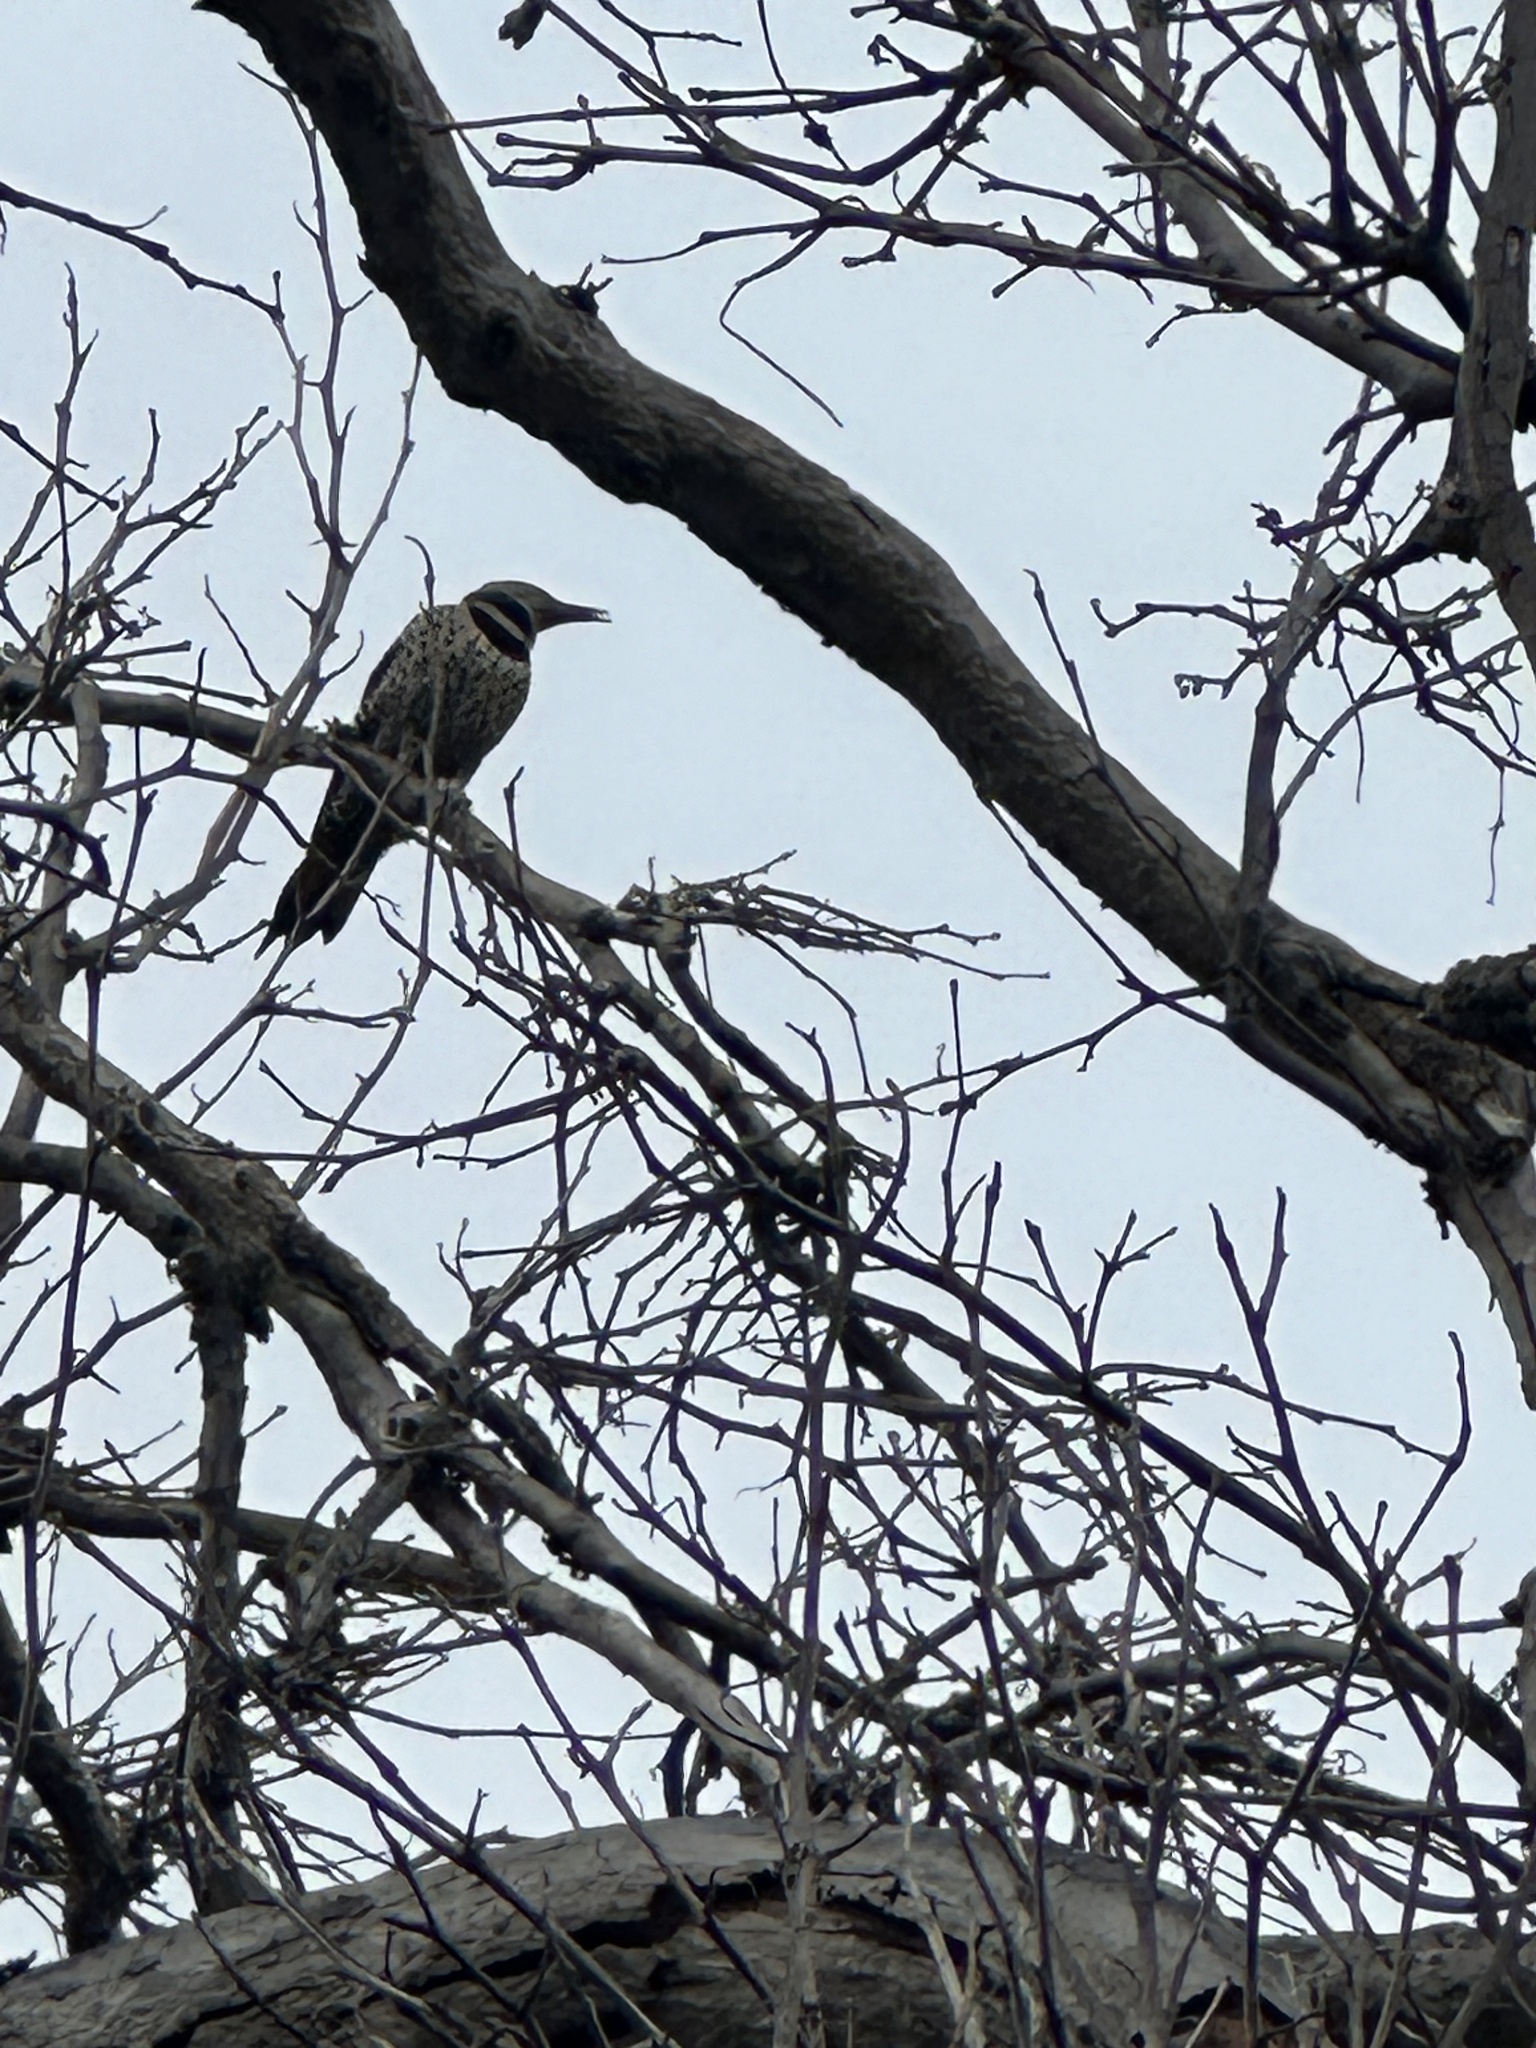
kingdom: Animalia
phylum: Chordata
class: Aves
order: Piciformes
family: Picidae
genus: Colaptes
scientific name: Colaptes auratus
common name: Northern flicker
